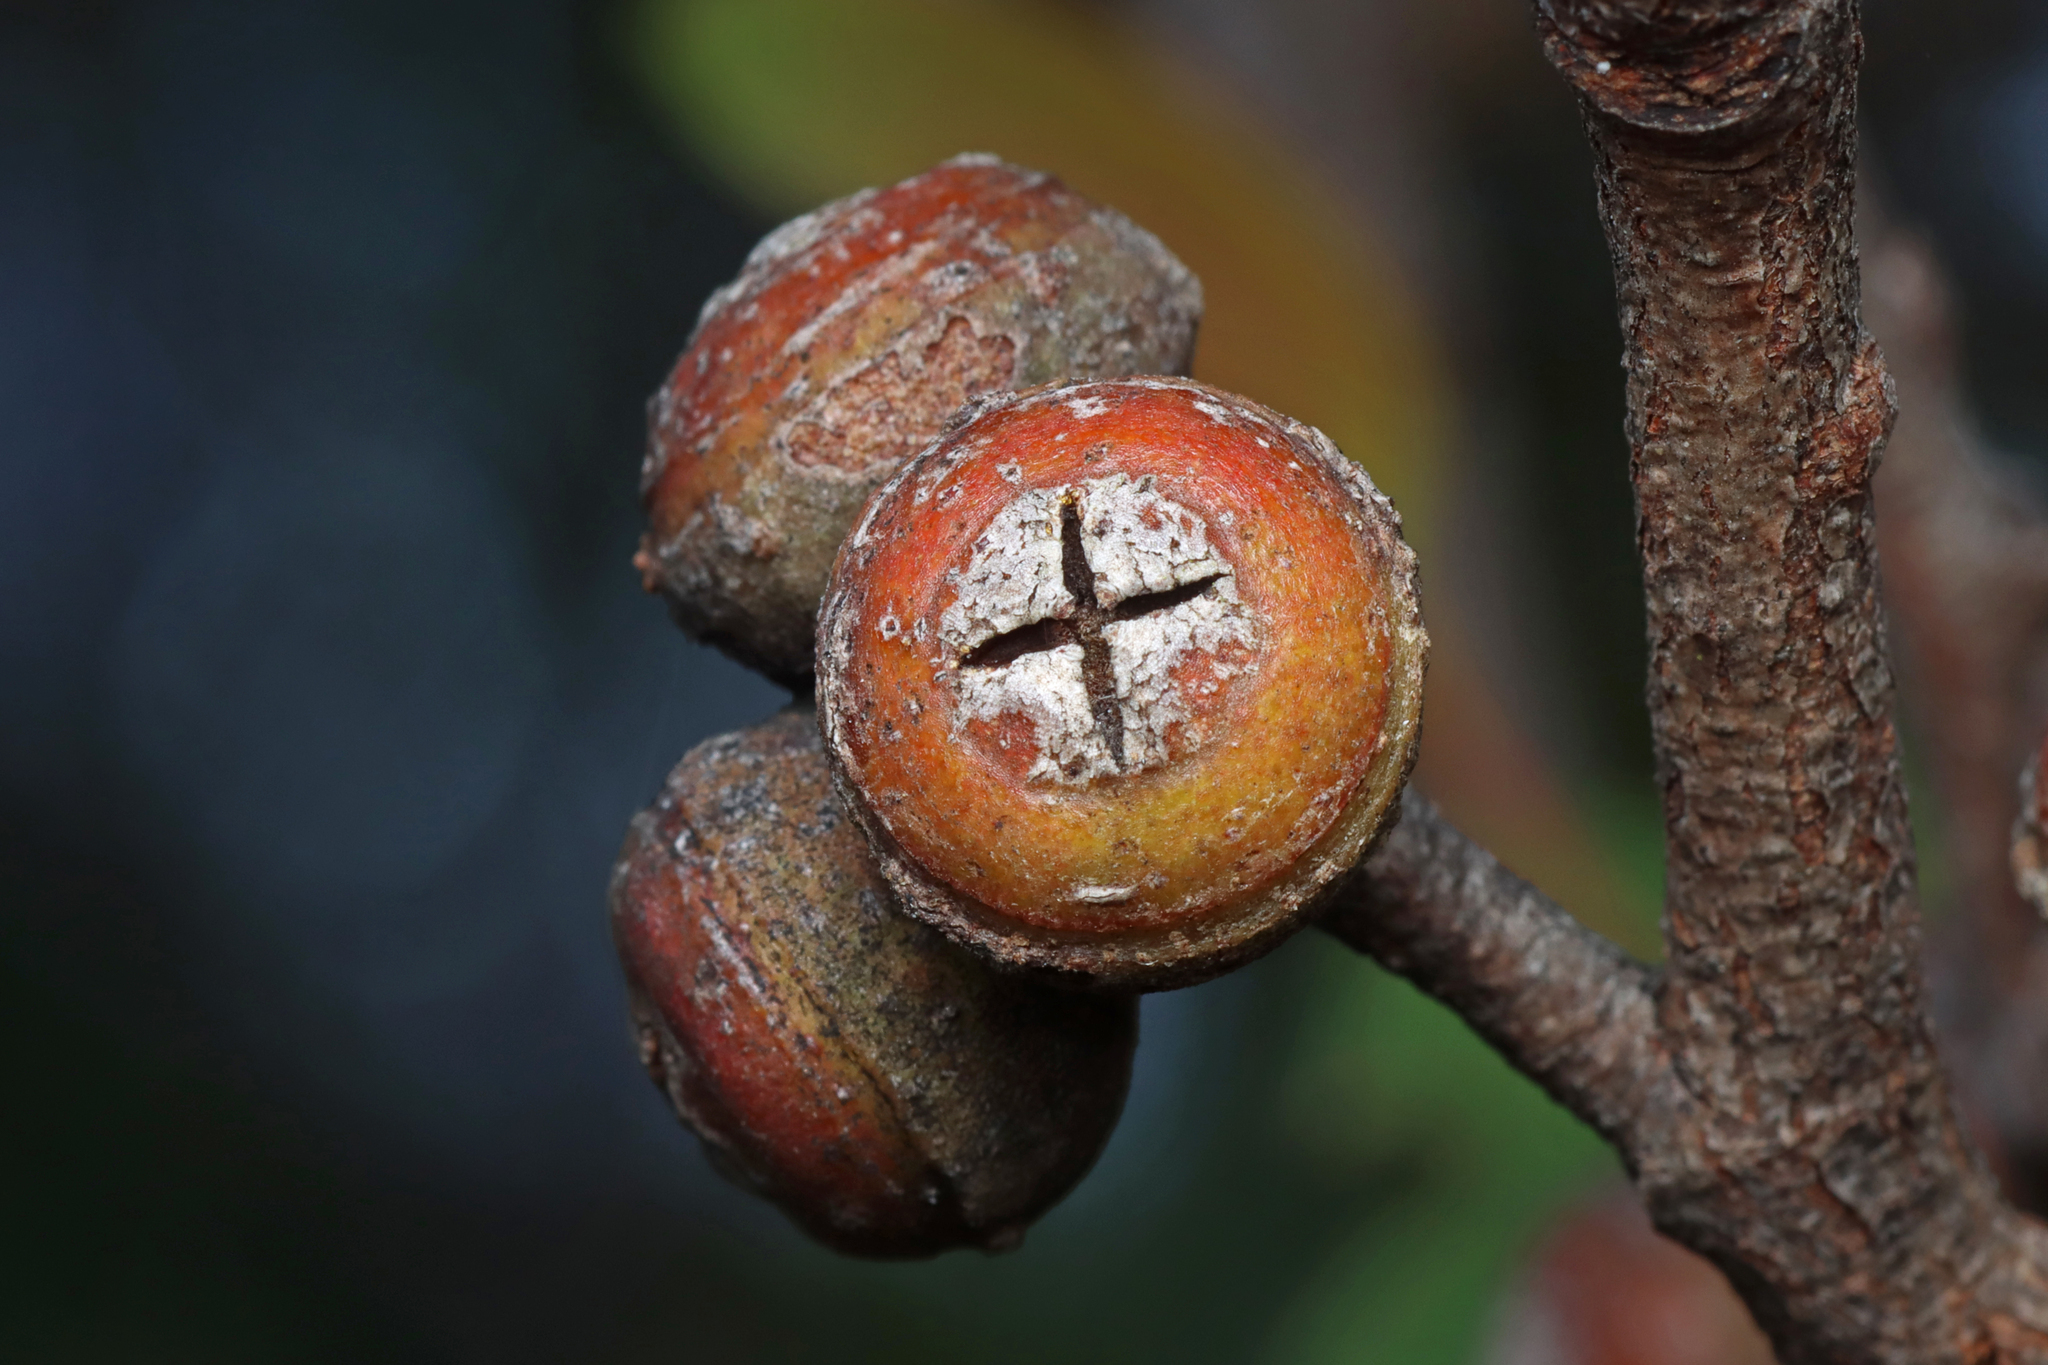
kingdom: Plantae
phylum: Tracheophyta
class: Magnoliopsida
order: Myrtales
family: Myrtaceae
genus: Eucalyptus
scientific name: Eucalyptus baxteri
